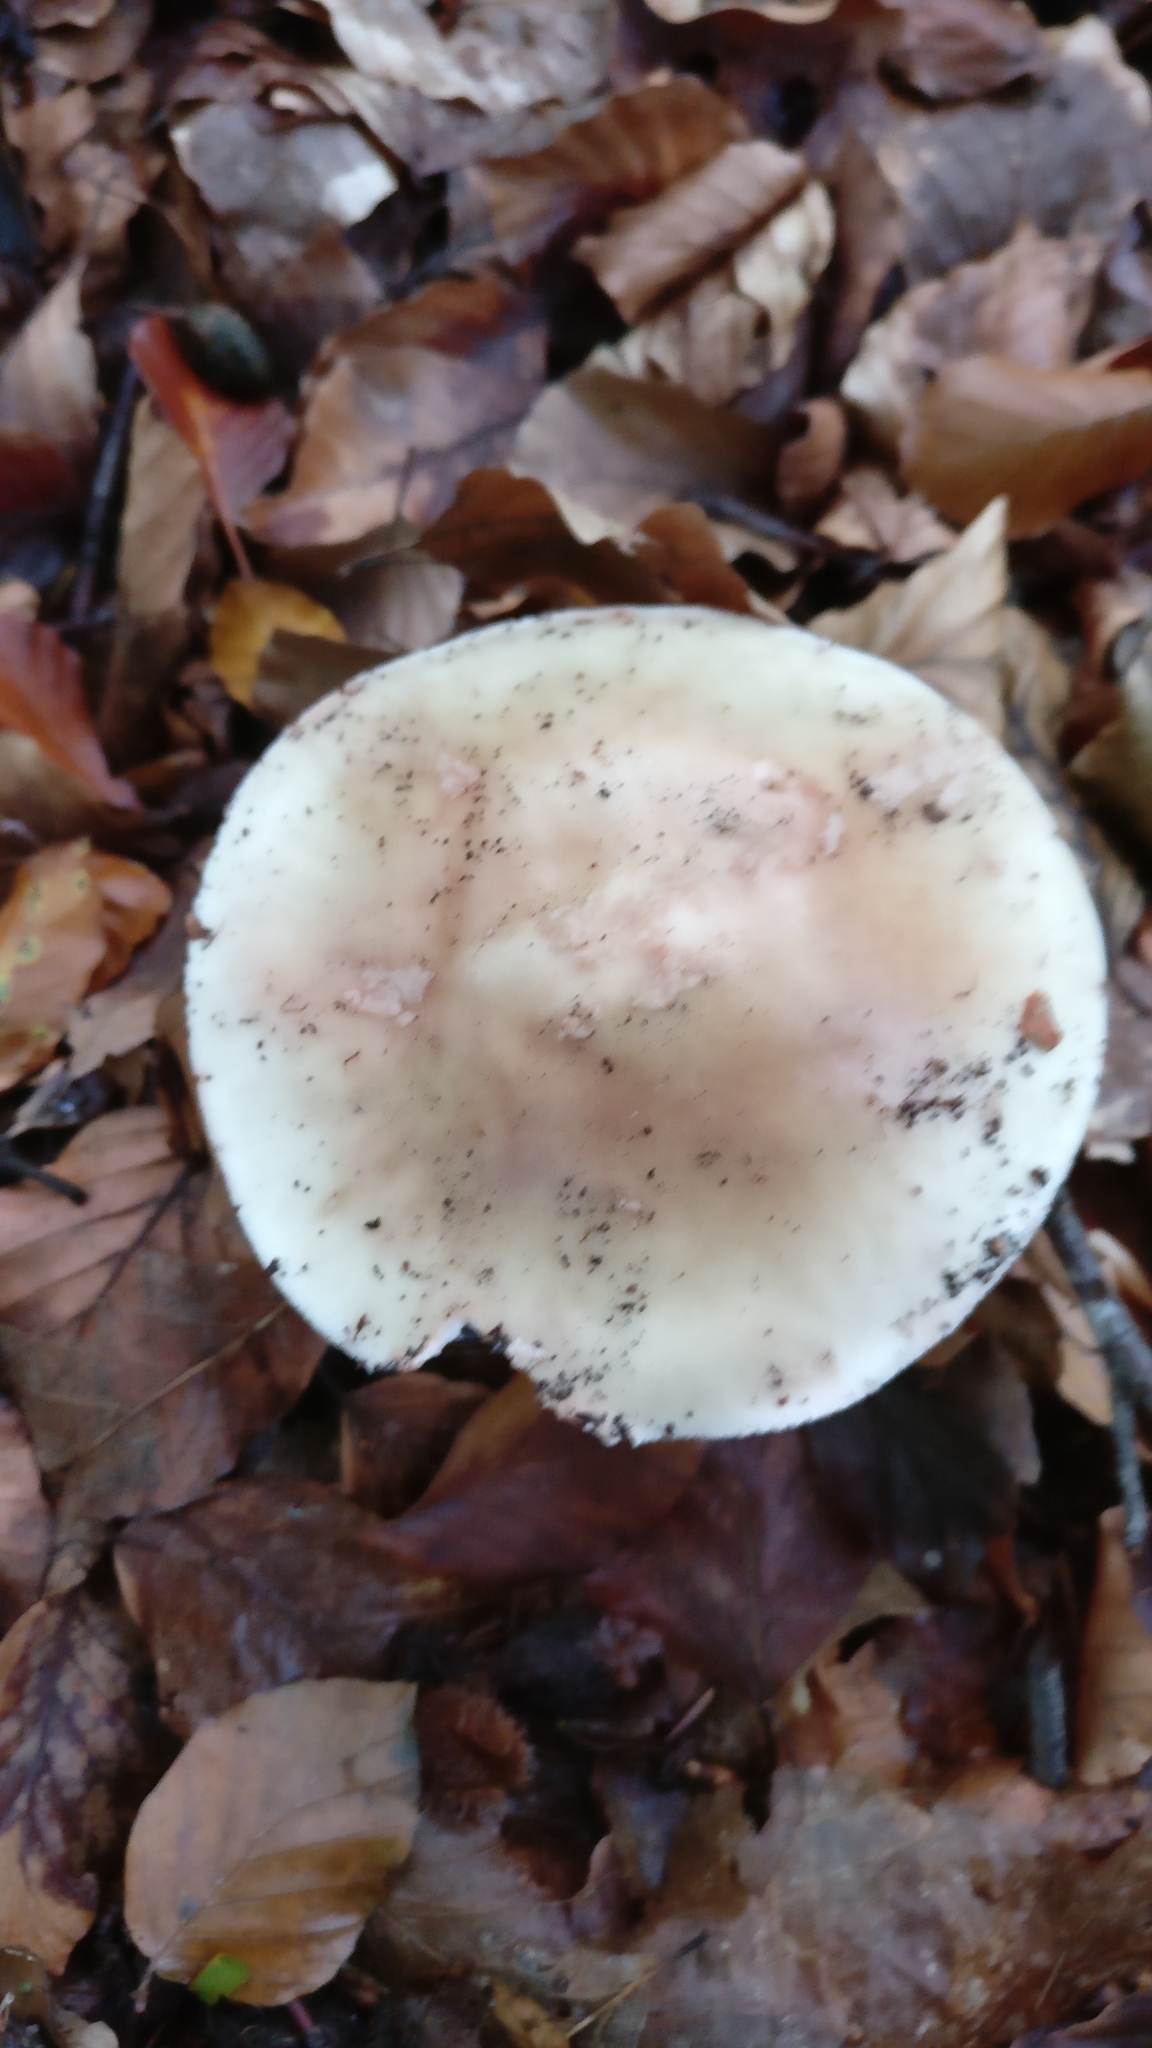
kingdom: Fungi
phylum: Basidiomycota
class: Agaricomycetes
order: Agaricales
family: Amanitaceae
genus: Amanita
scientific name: Amanita rubescens
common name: Blusher
